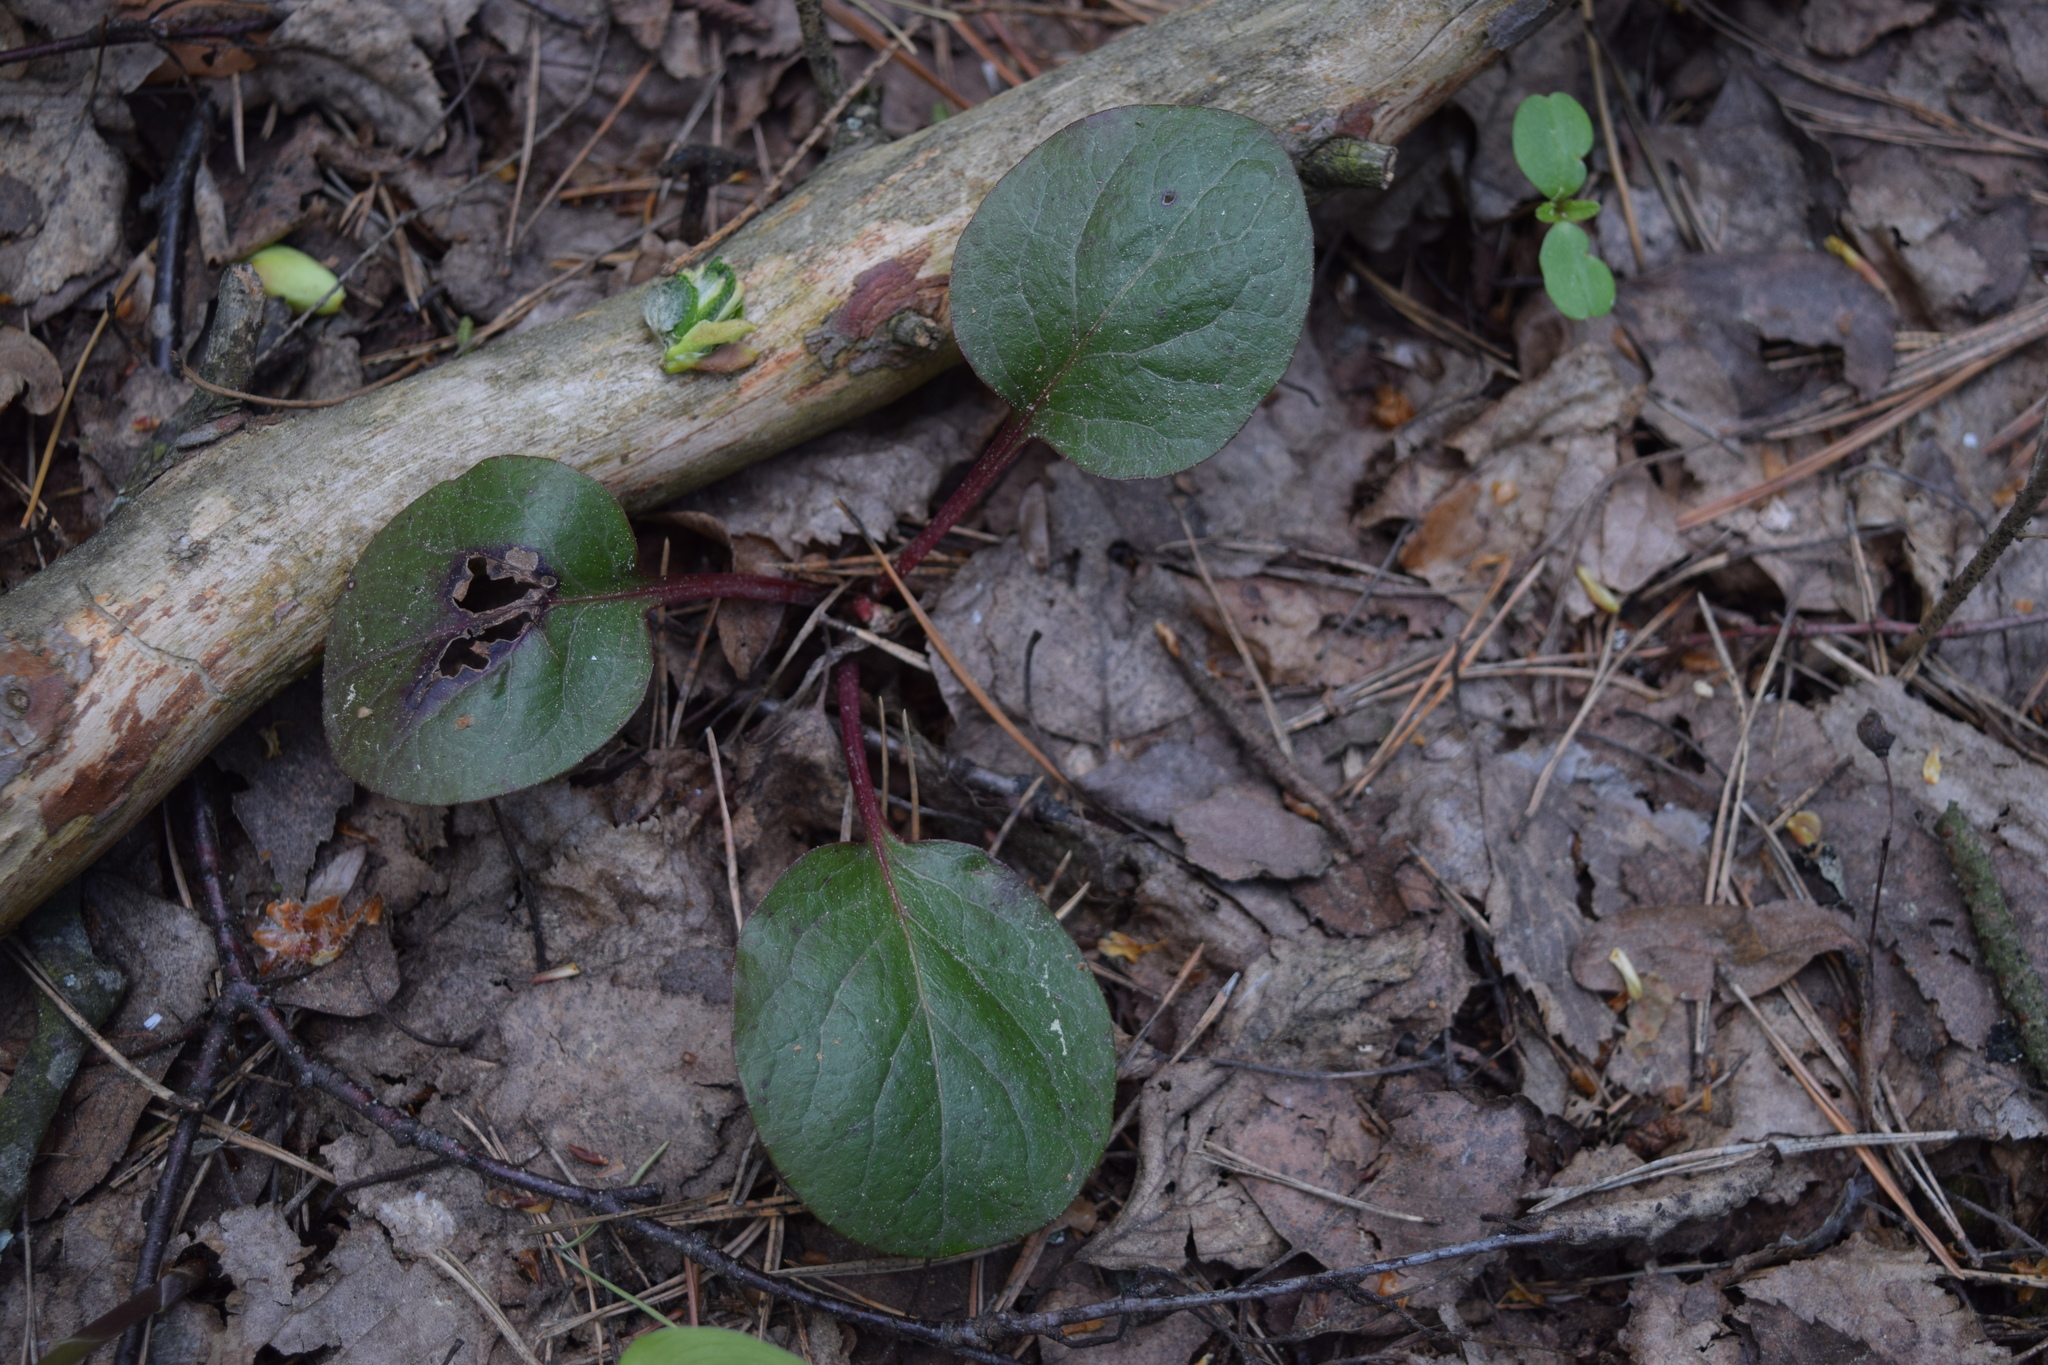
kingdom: Plantae
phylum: Tracheophyta
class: Magnoliopsida
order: Ericales
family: Ericaceae
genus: Pyrola
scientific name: Pyrola
